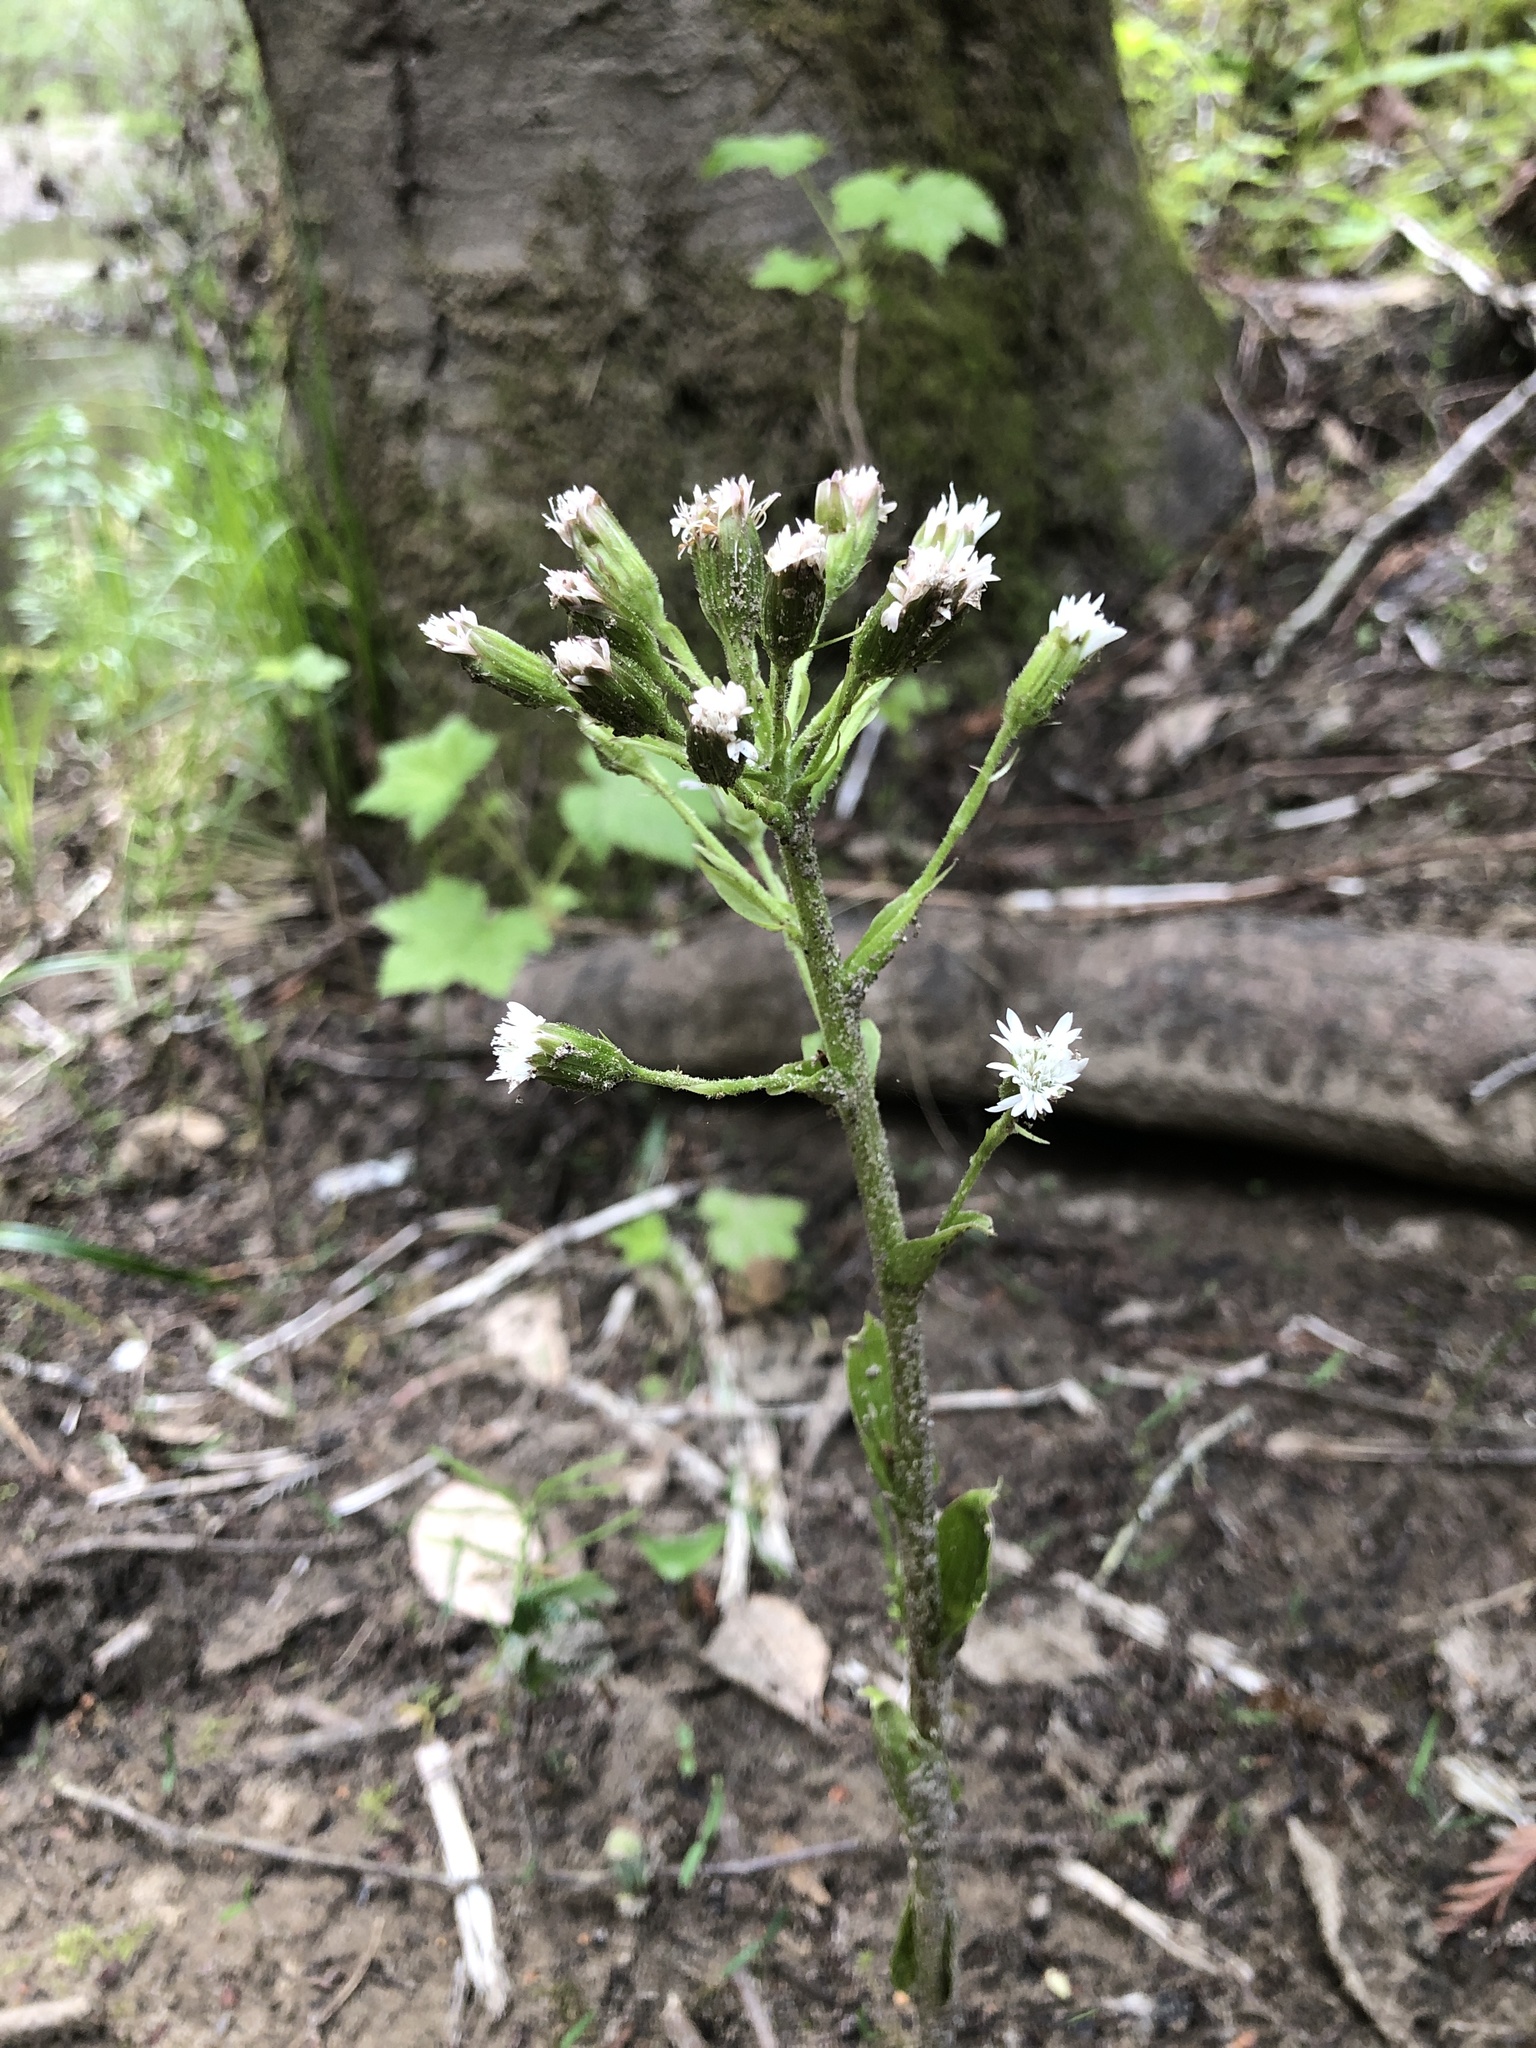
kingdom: Plantae
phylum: Tracheophyta
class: Magnoliopsida
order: Asterales
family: Asteraceae
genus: Petasites
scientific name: Petasites frigidus
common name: Arctic butterbur
